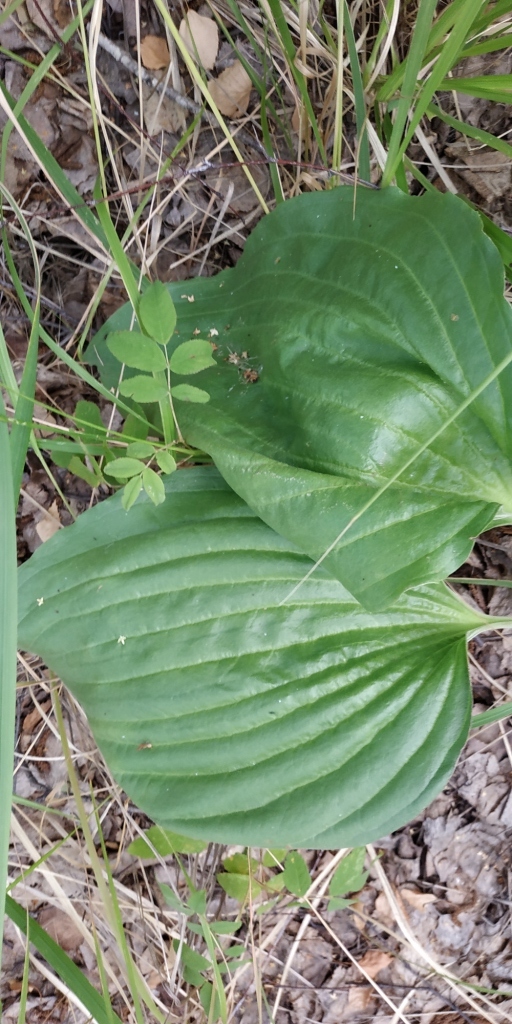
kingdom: Plantae
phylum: Tracheophyta
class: Magnoliopsida
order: Lamiales
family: Plantaginaceae
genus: Plantago
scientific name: Plantago maxima
